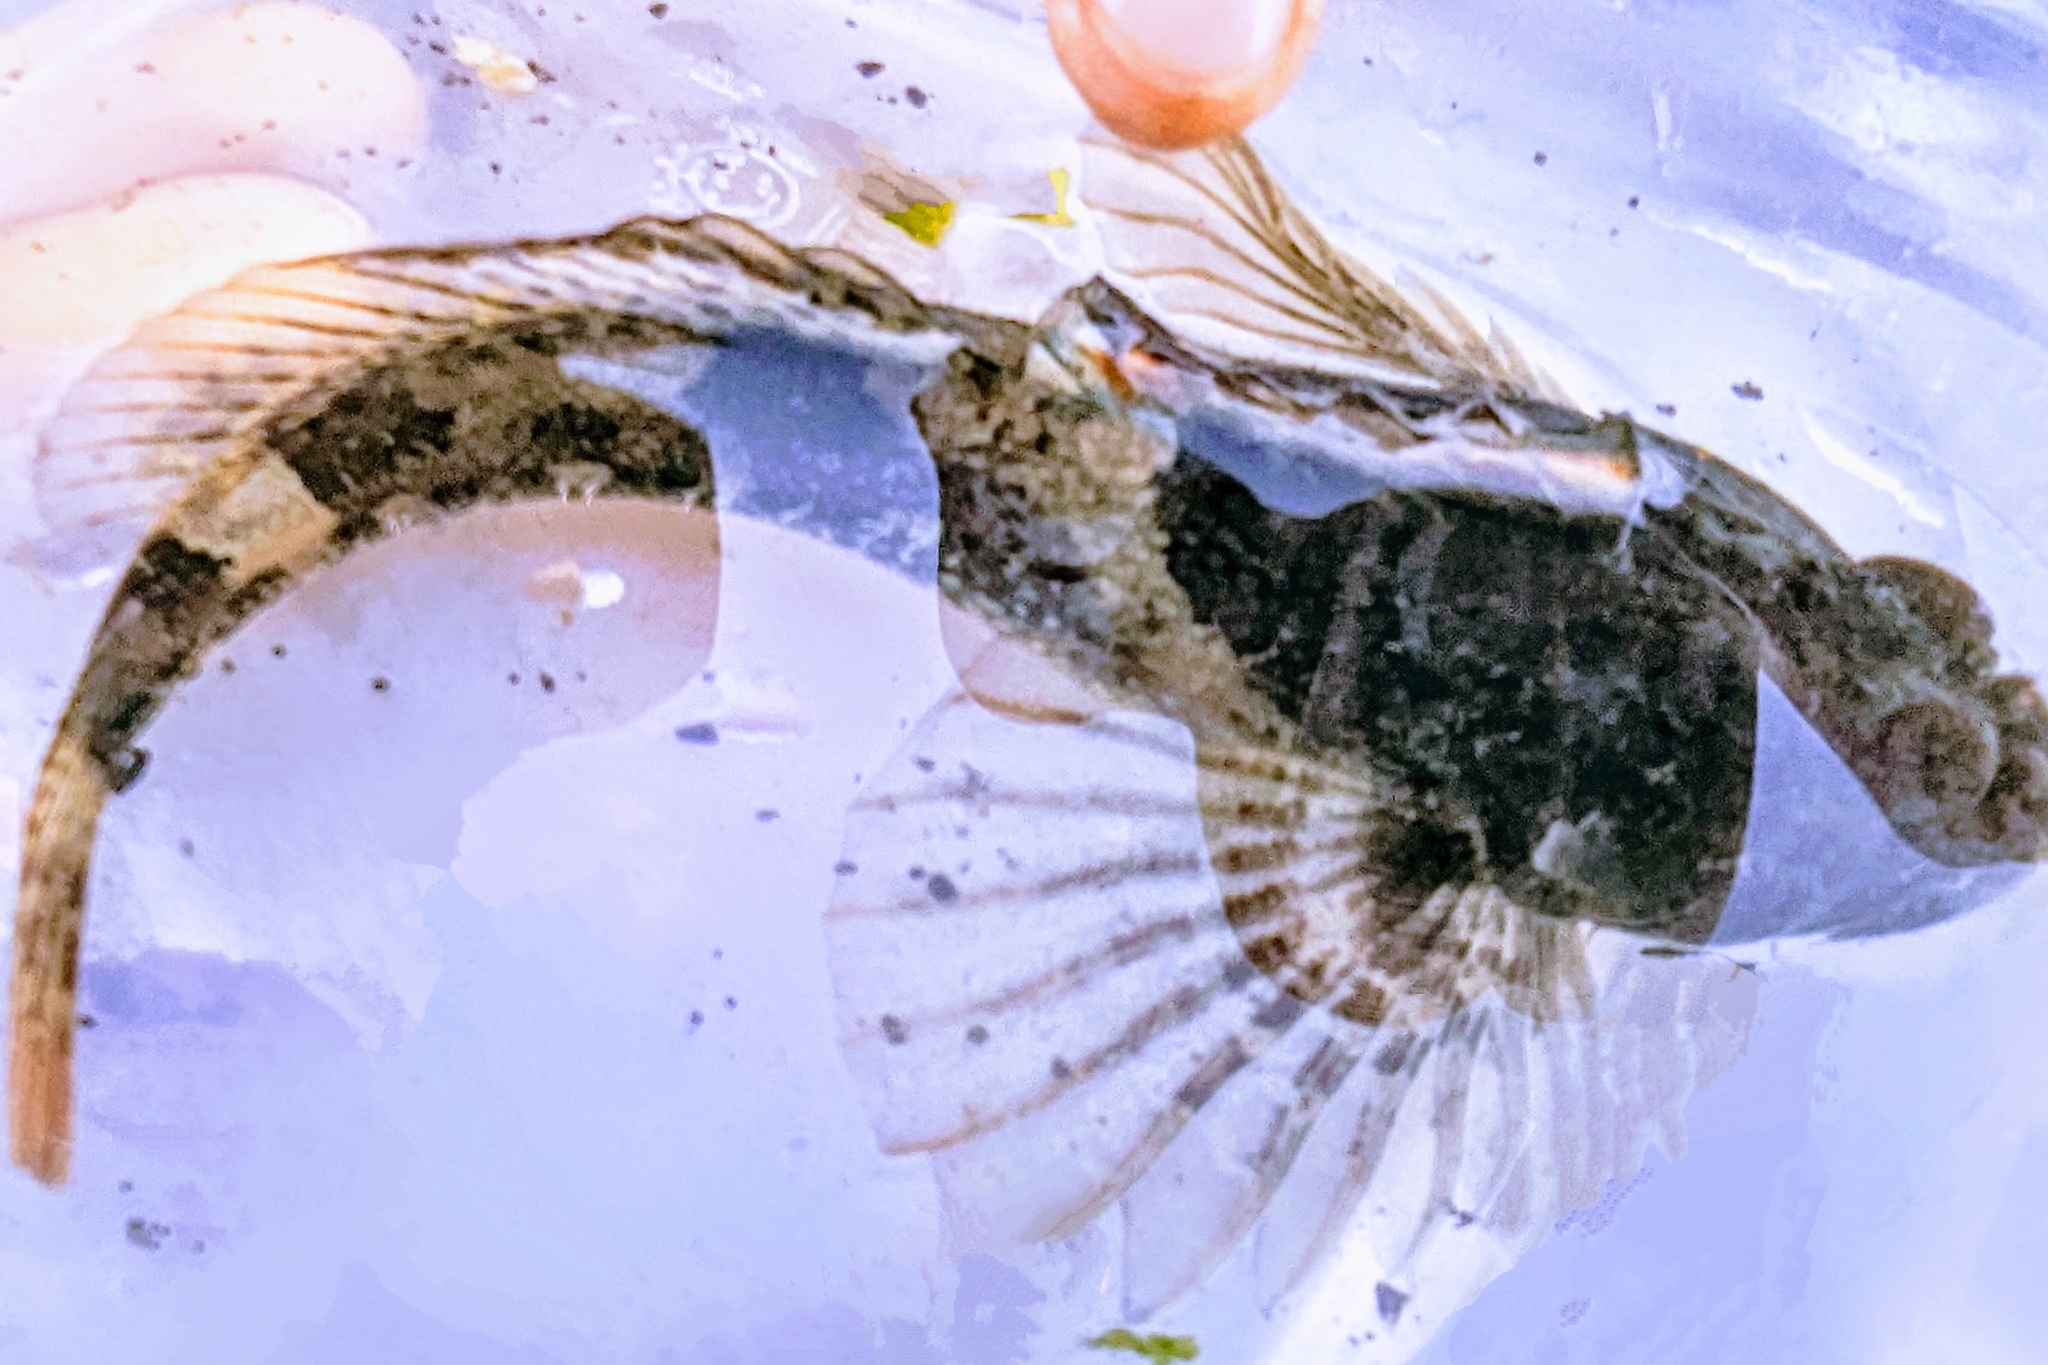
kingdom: Animalia
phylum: Chordata
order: Scorpaeniformes
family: Cottidae
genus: Artedius
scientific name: Artedius fenestralis
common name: Padded sculpin
